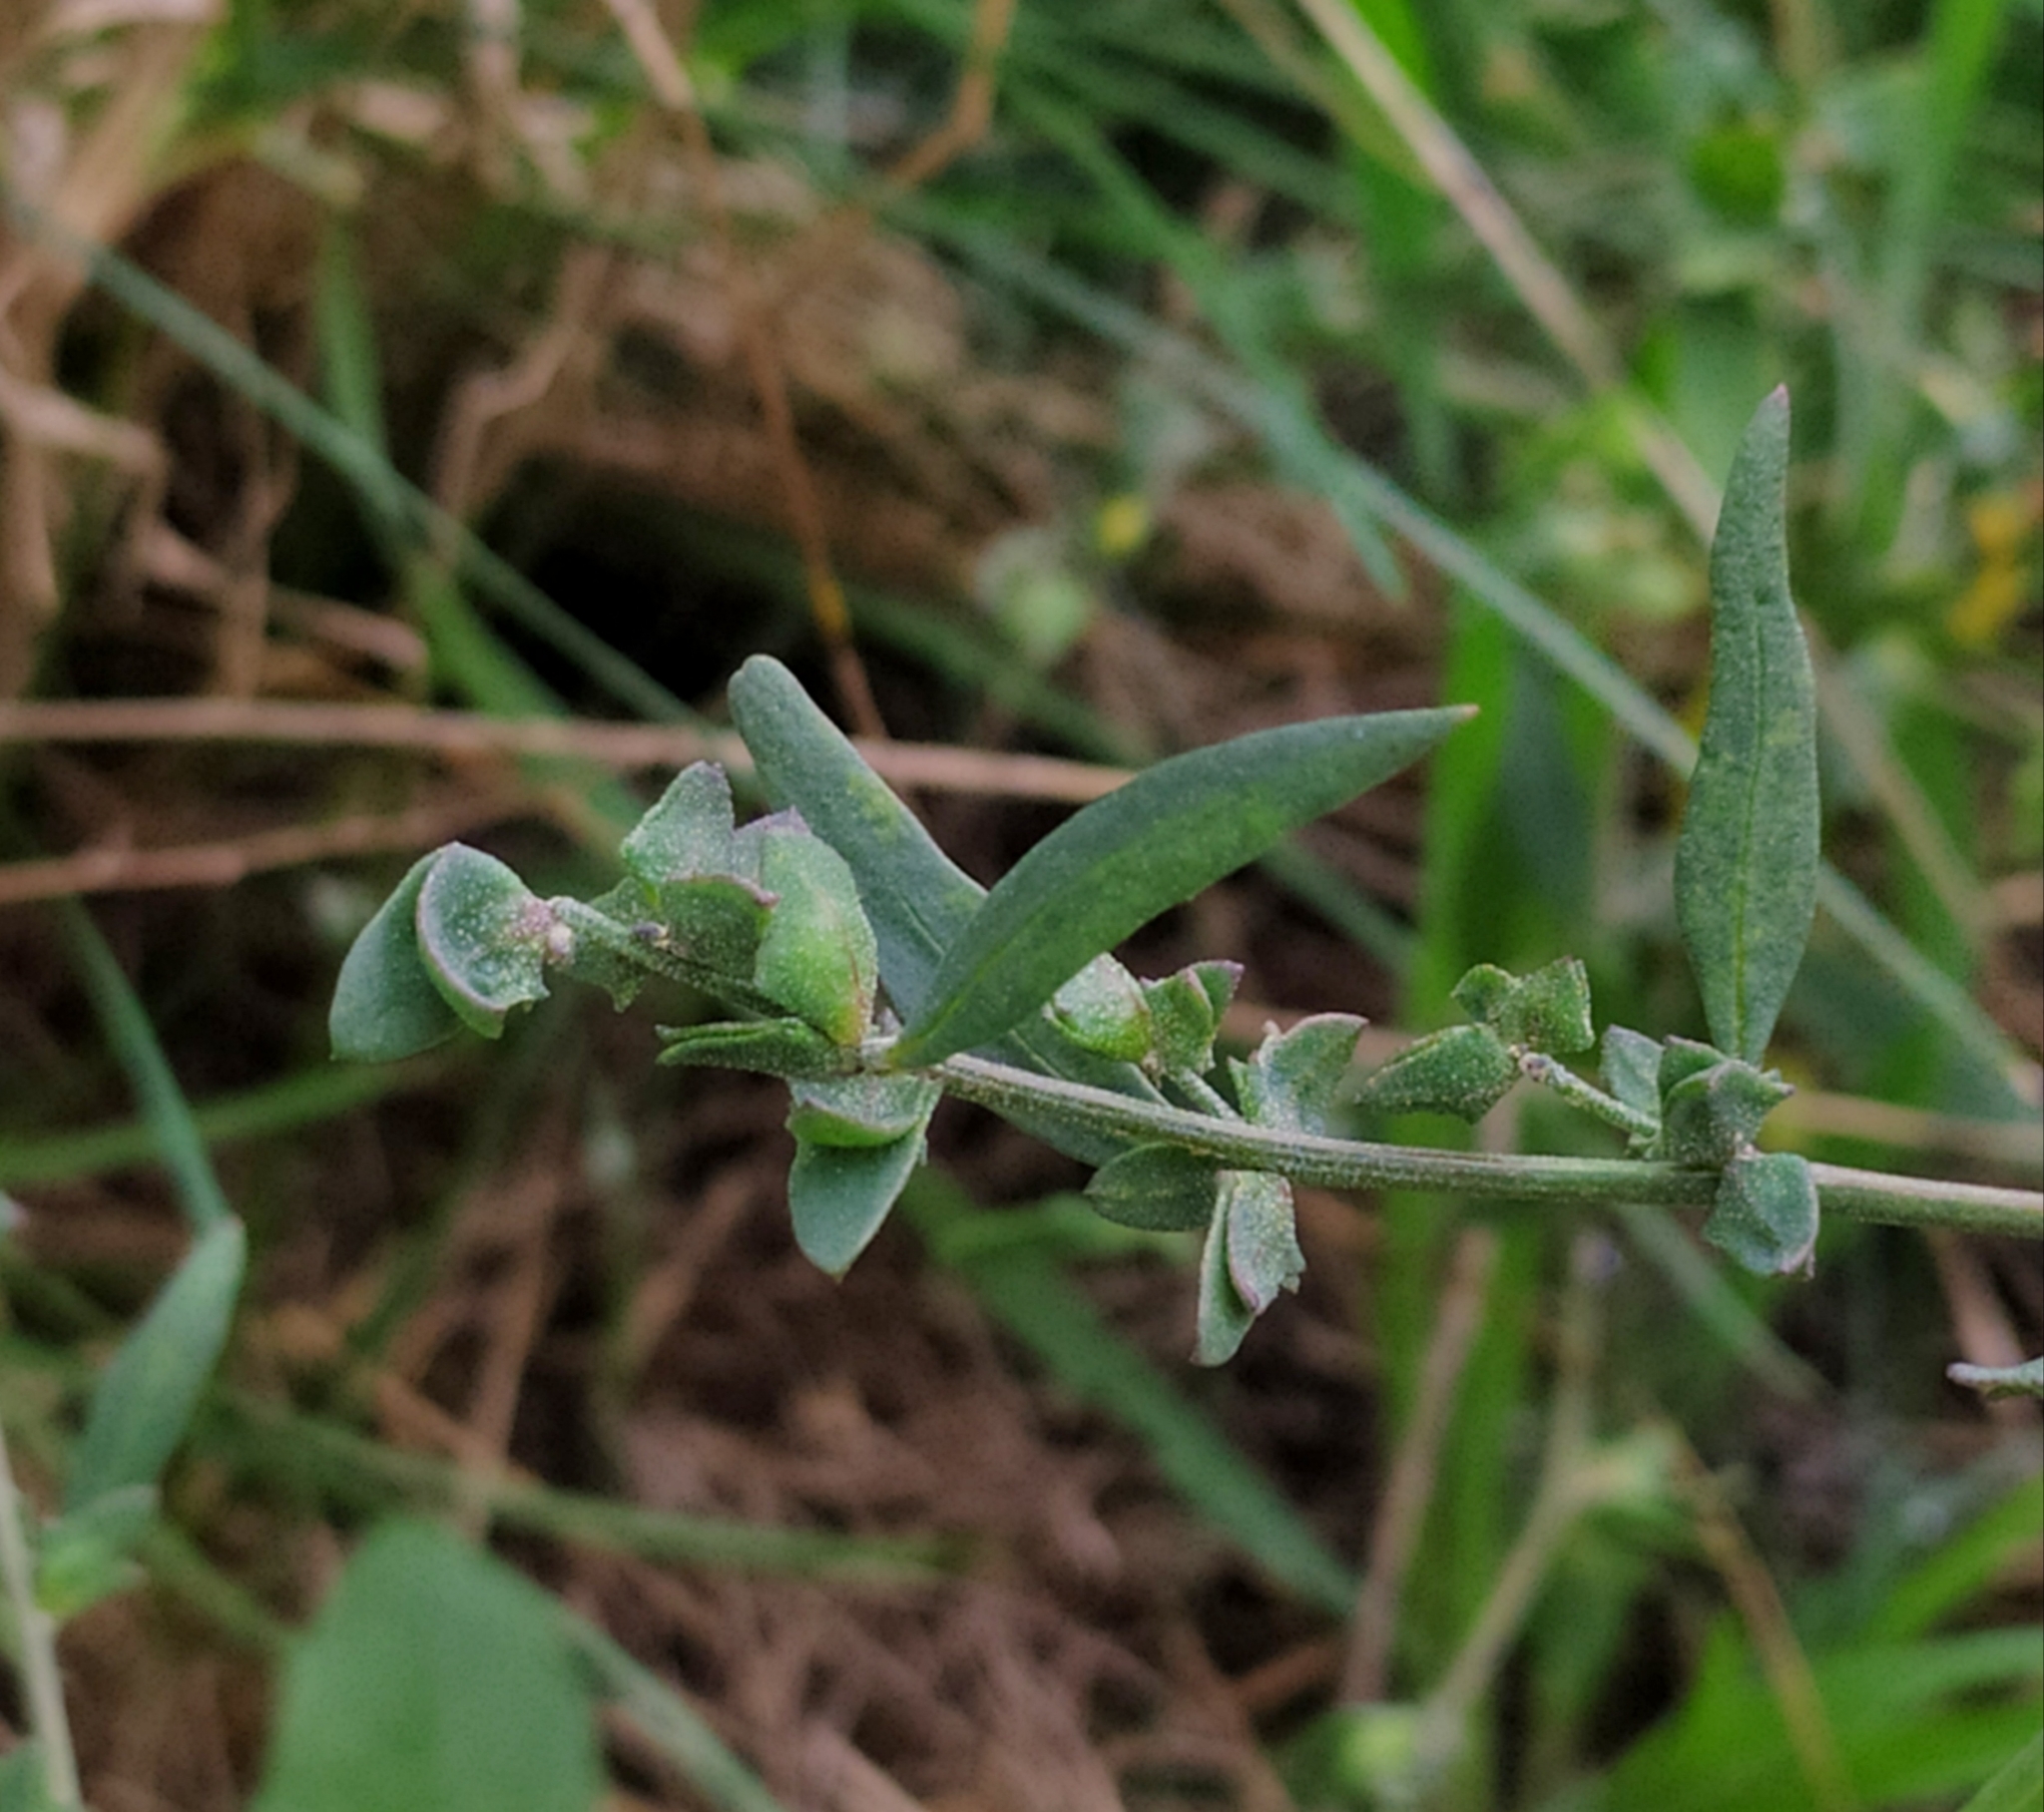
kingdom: Plantae
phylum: Tracheophyta
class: Magnoliopsida
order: Caryophyllales
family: Amaranthaceae
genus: Atriplex
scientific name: Atriplex patula
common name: Common orache
